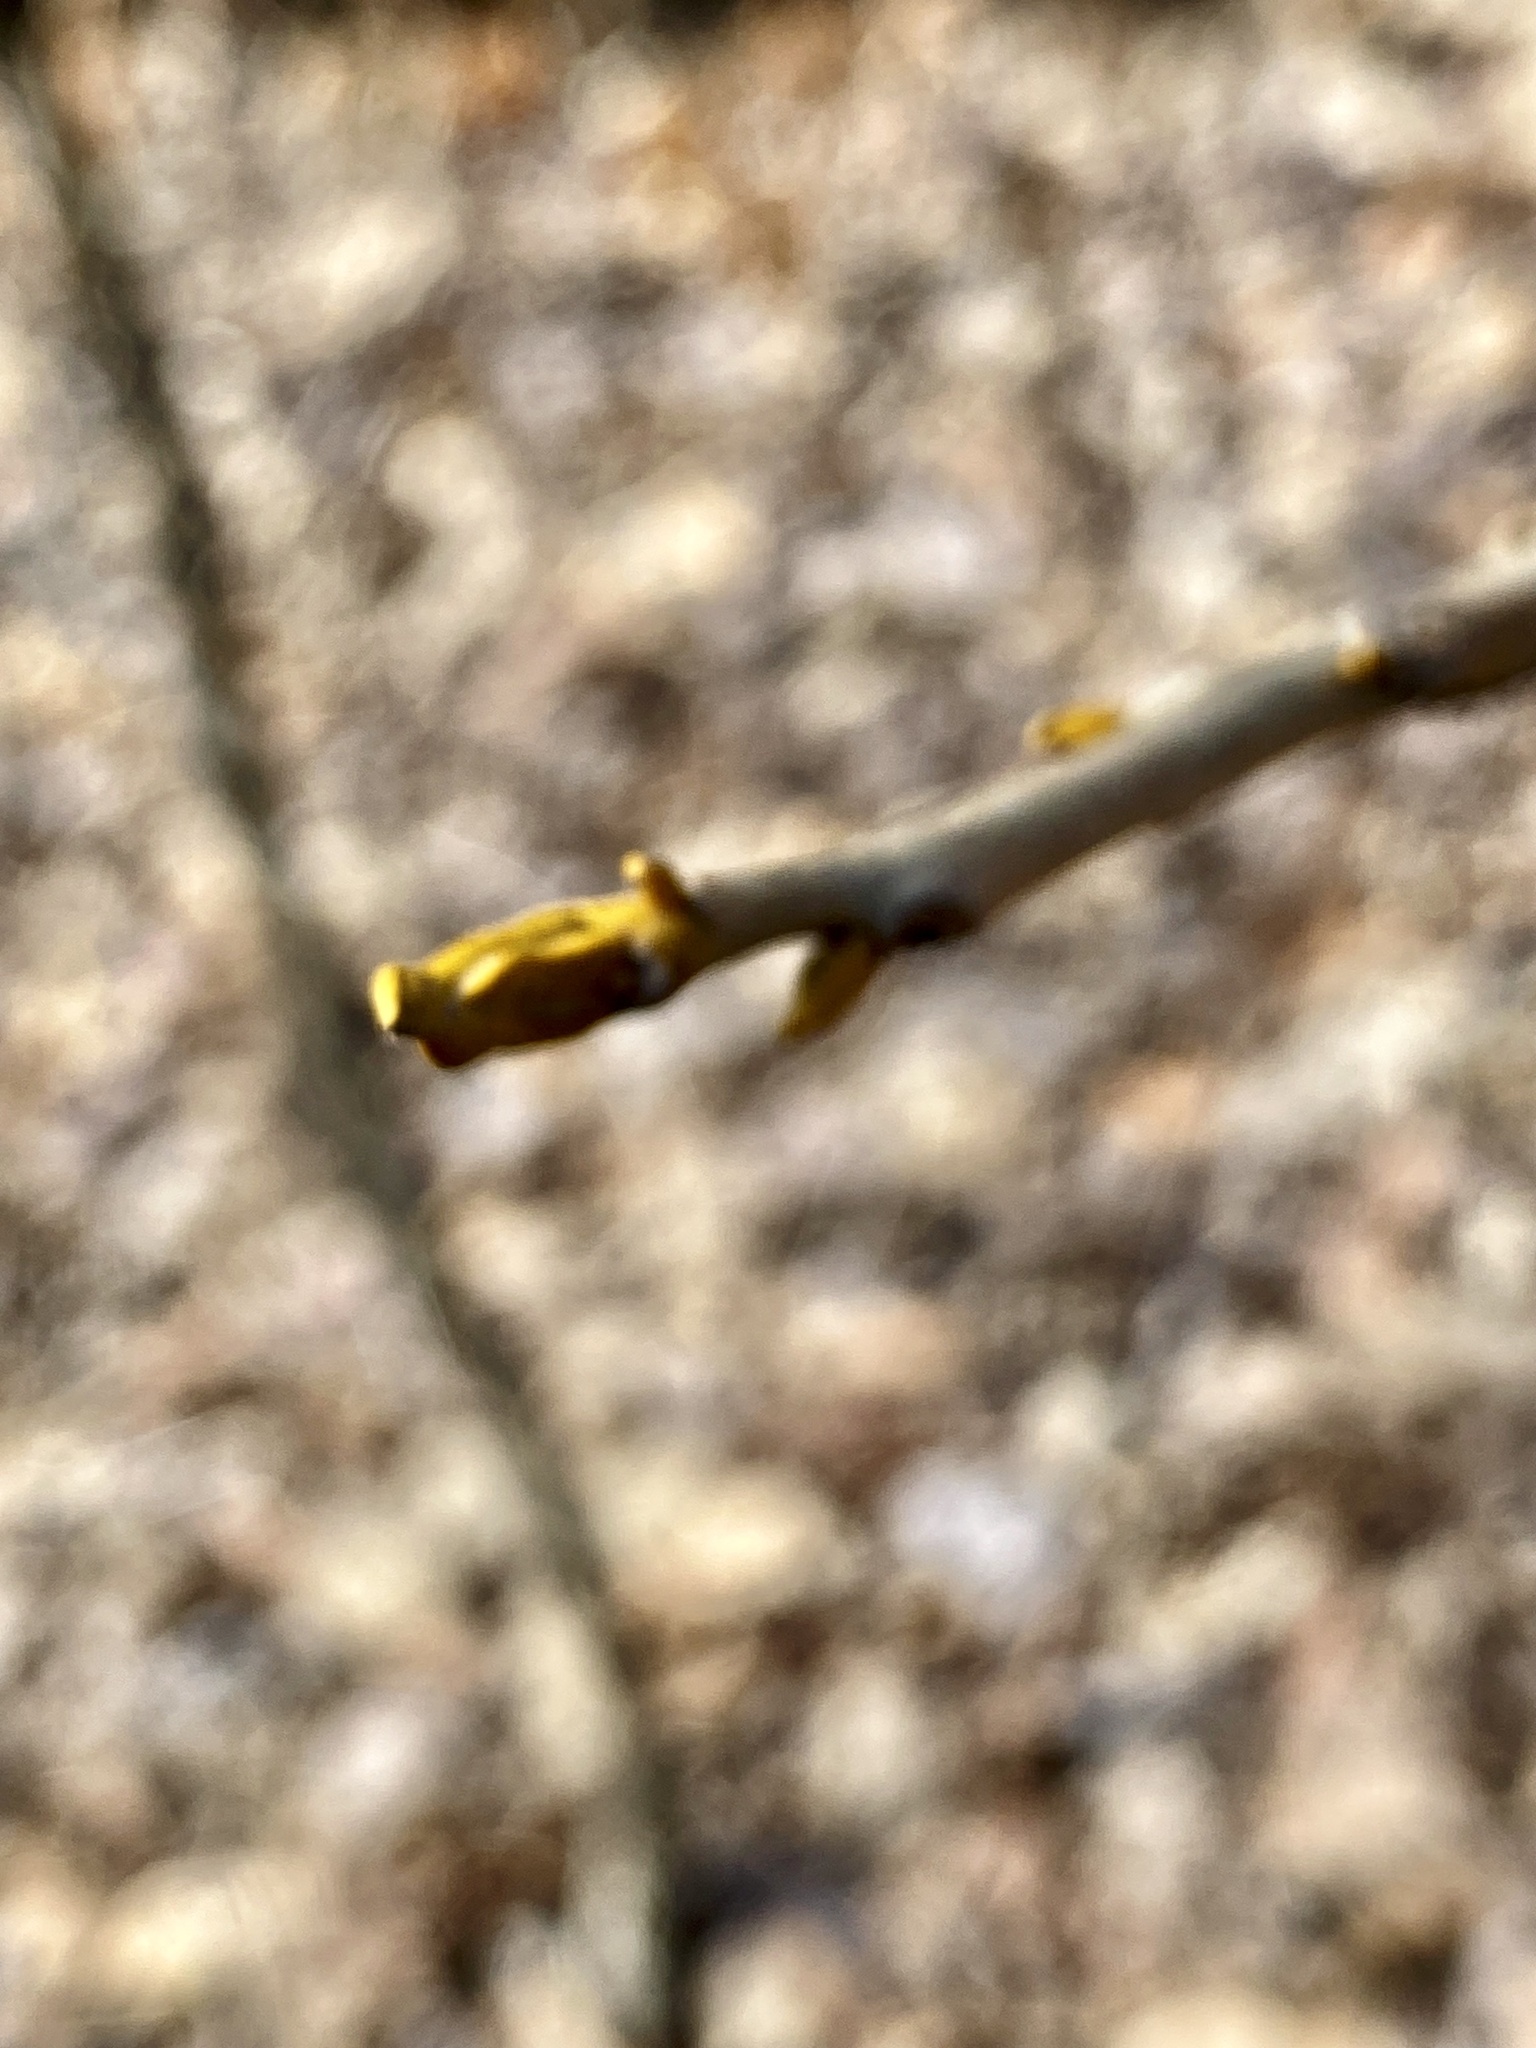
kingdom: Plantae
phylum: Tracheophyta
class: Magnoliopsida
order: Fagales
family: Juglandaceae
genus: Carya
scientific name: Carya cordiformis
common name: Bitternut hickory
